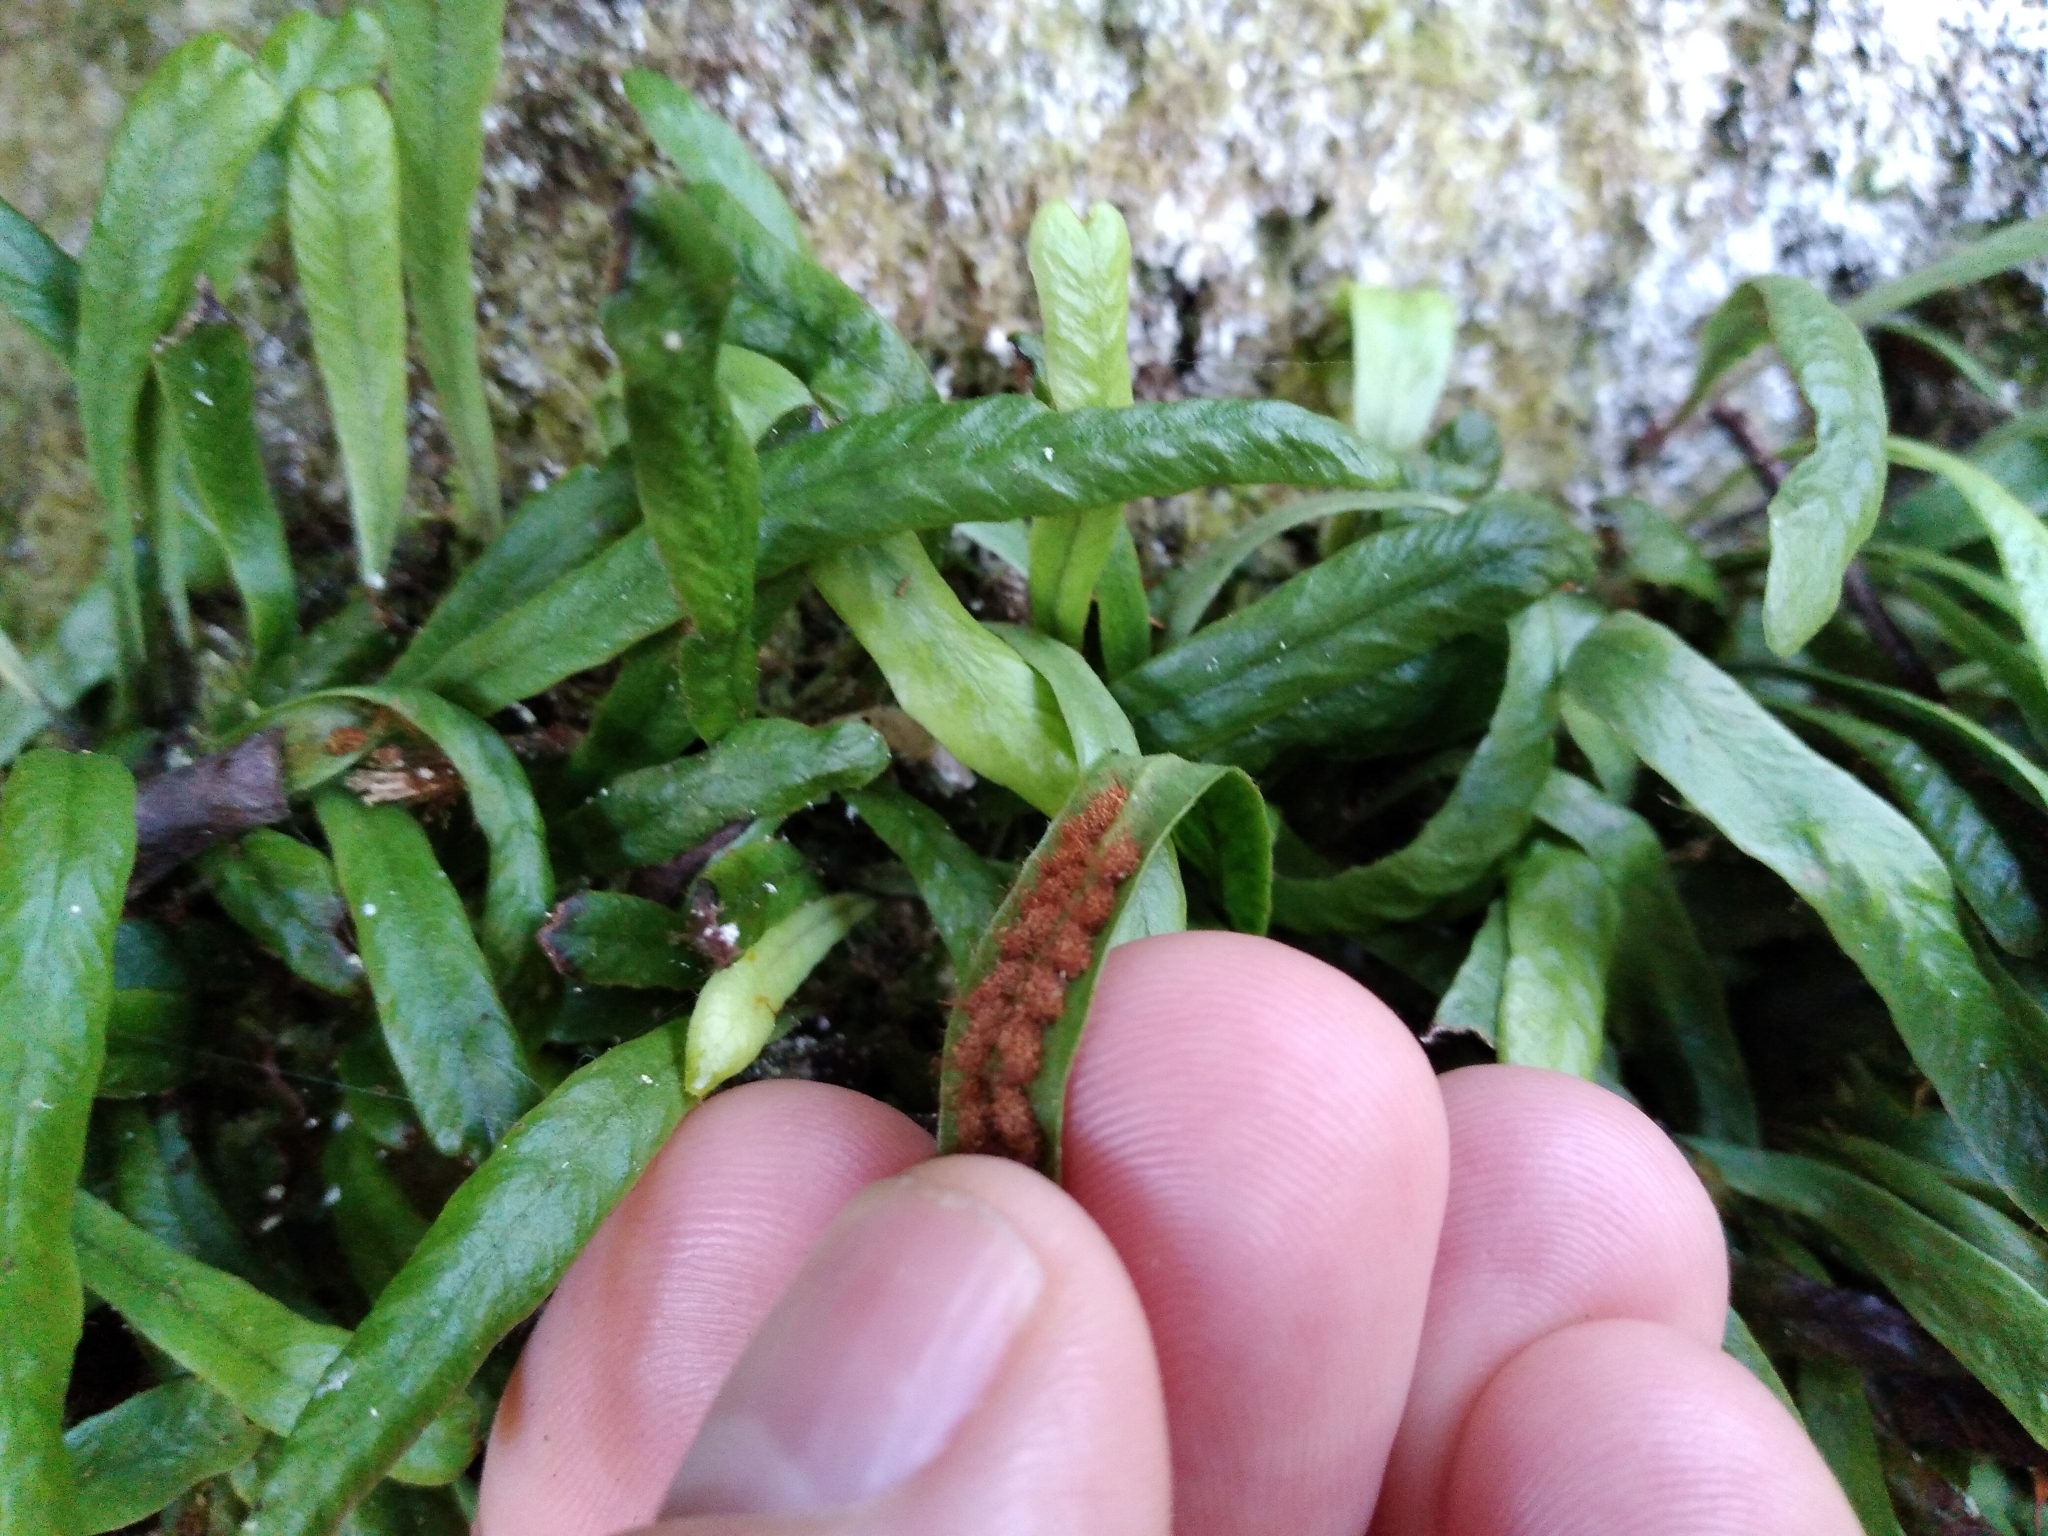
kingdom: Plantae
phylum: Tracheophyta
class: Polypodiopsida
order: Polypodiales
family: Polypodiaceae
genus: Notogrammitis
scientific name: Notogrammitis patagonica
